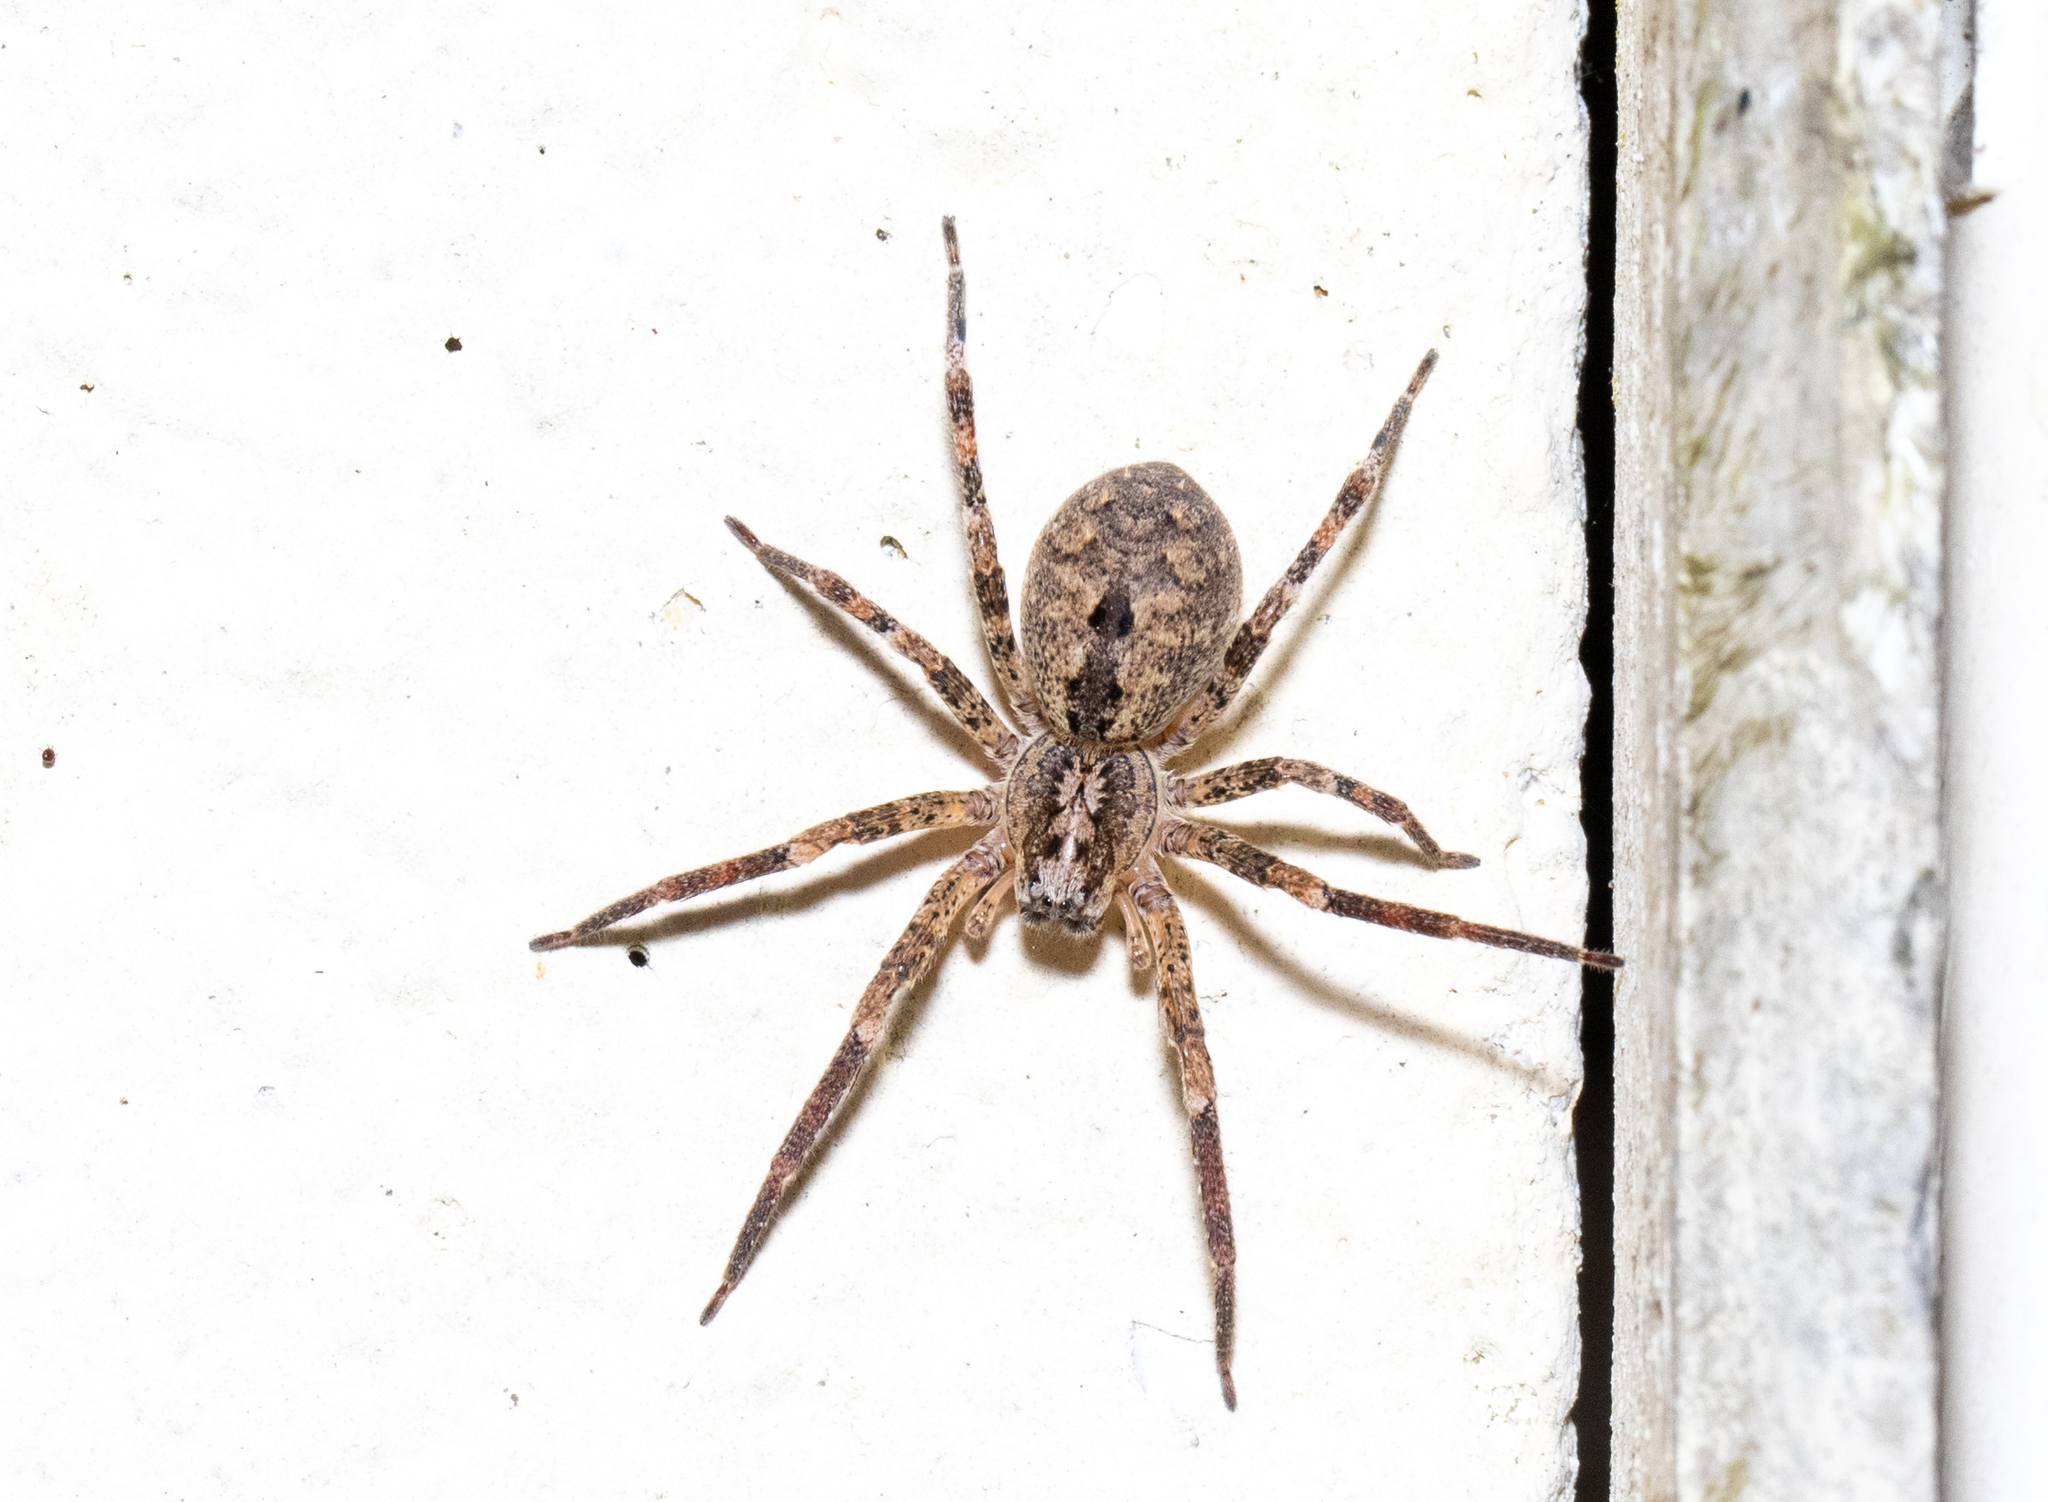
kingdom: Animalia
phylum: Arthropoda
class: Arachnida
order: Araneae
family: Zoropsidae
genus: Zoropsis
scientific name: Zoropsis spinimana
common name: Zoropsid spider
